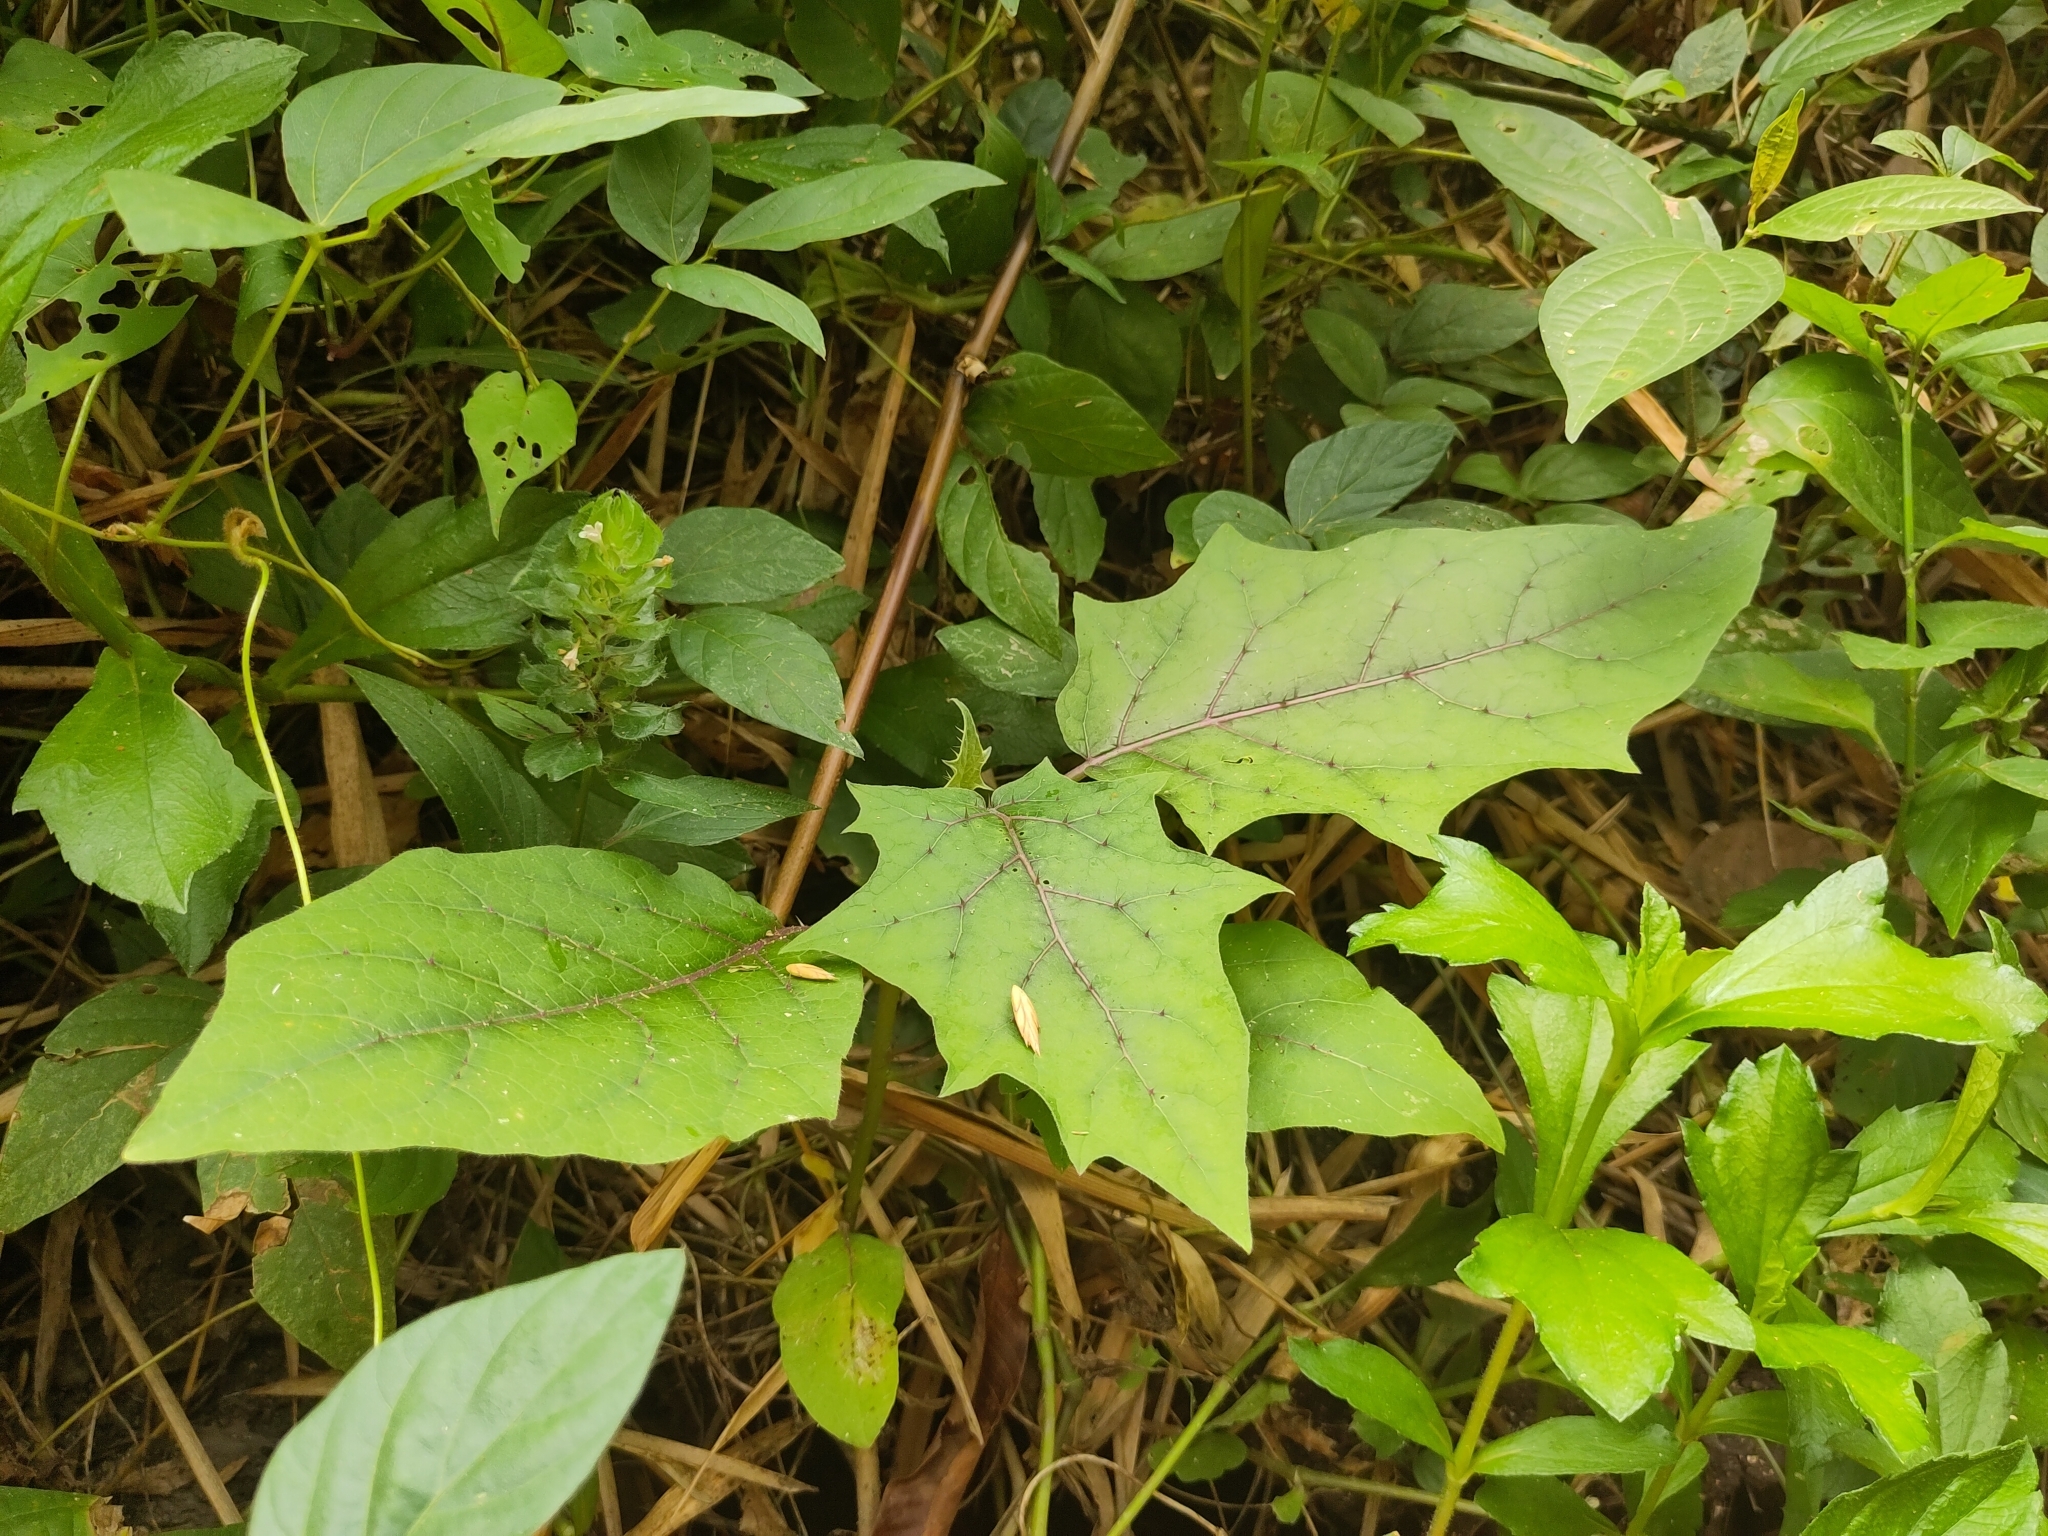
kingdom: Plantae
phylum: Tracheophyta
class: Magnoliopsida
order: Solanales
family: Solanaceae
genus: Solanum
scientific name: Solanum
